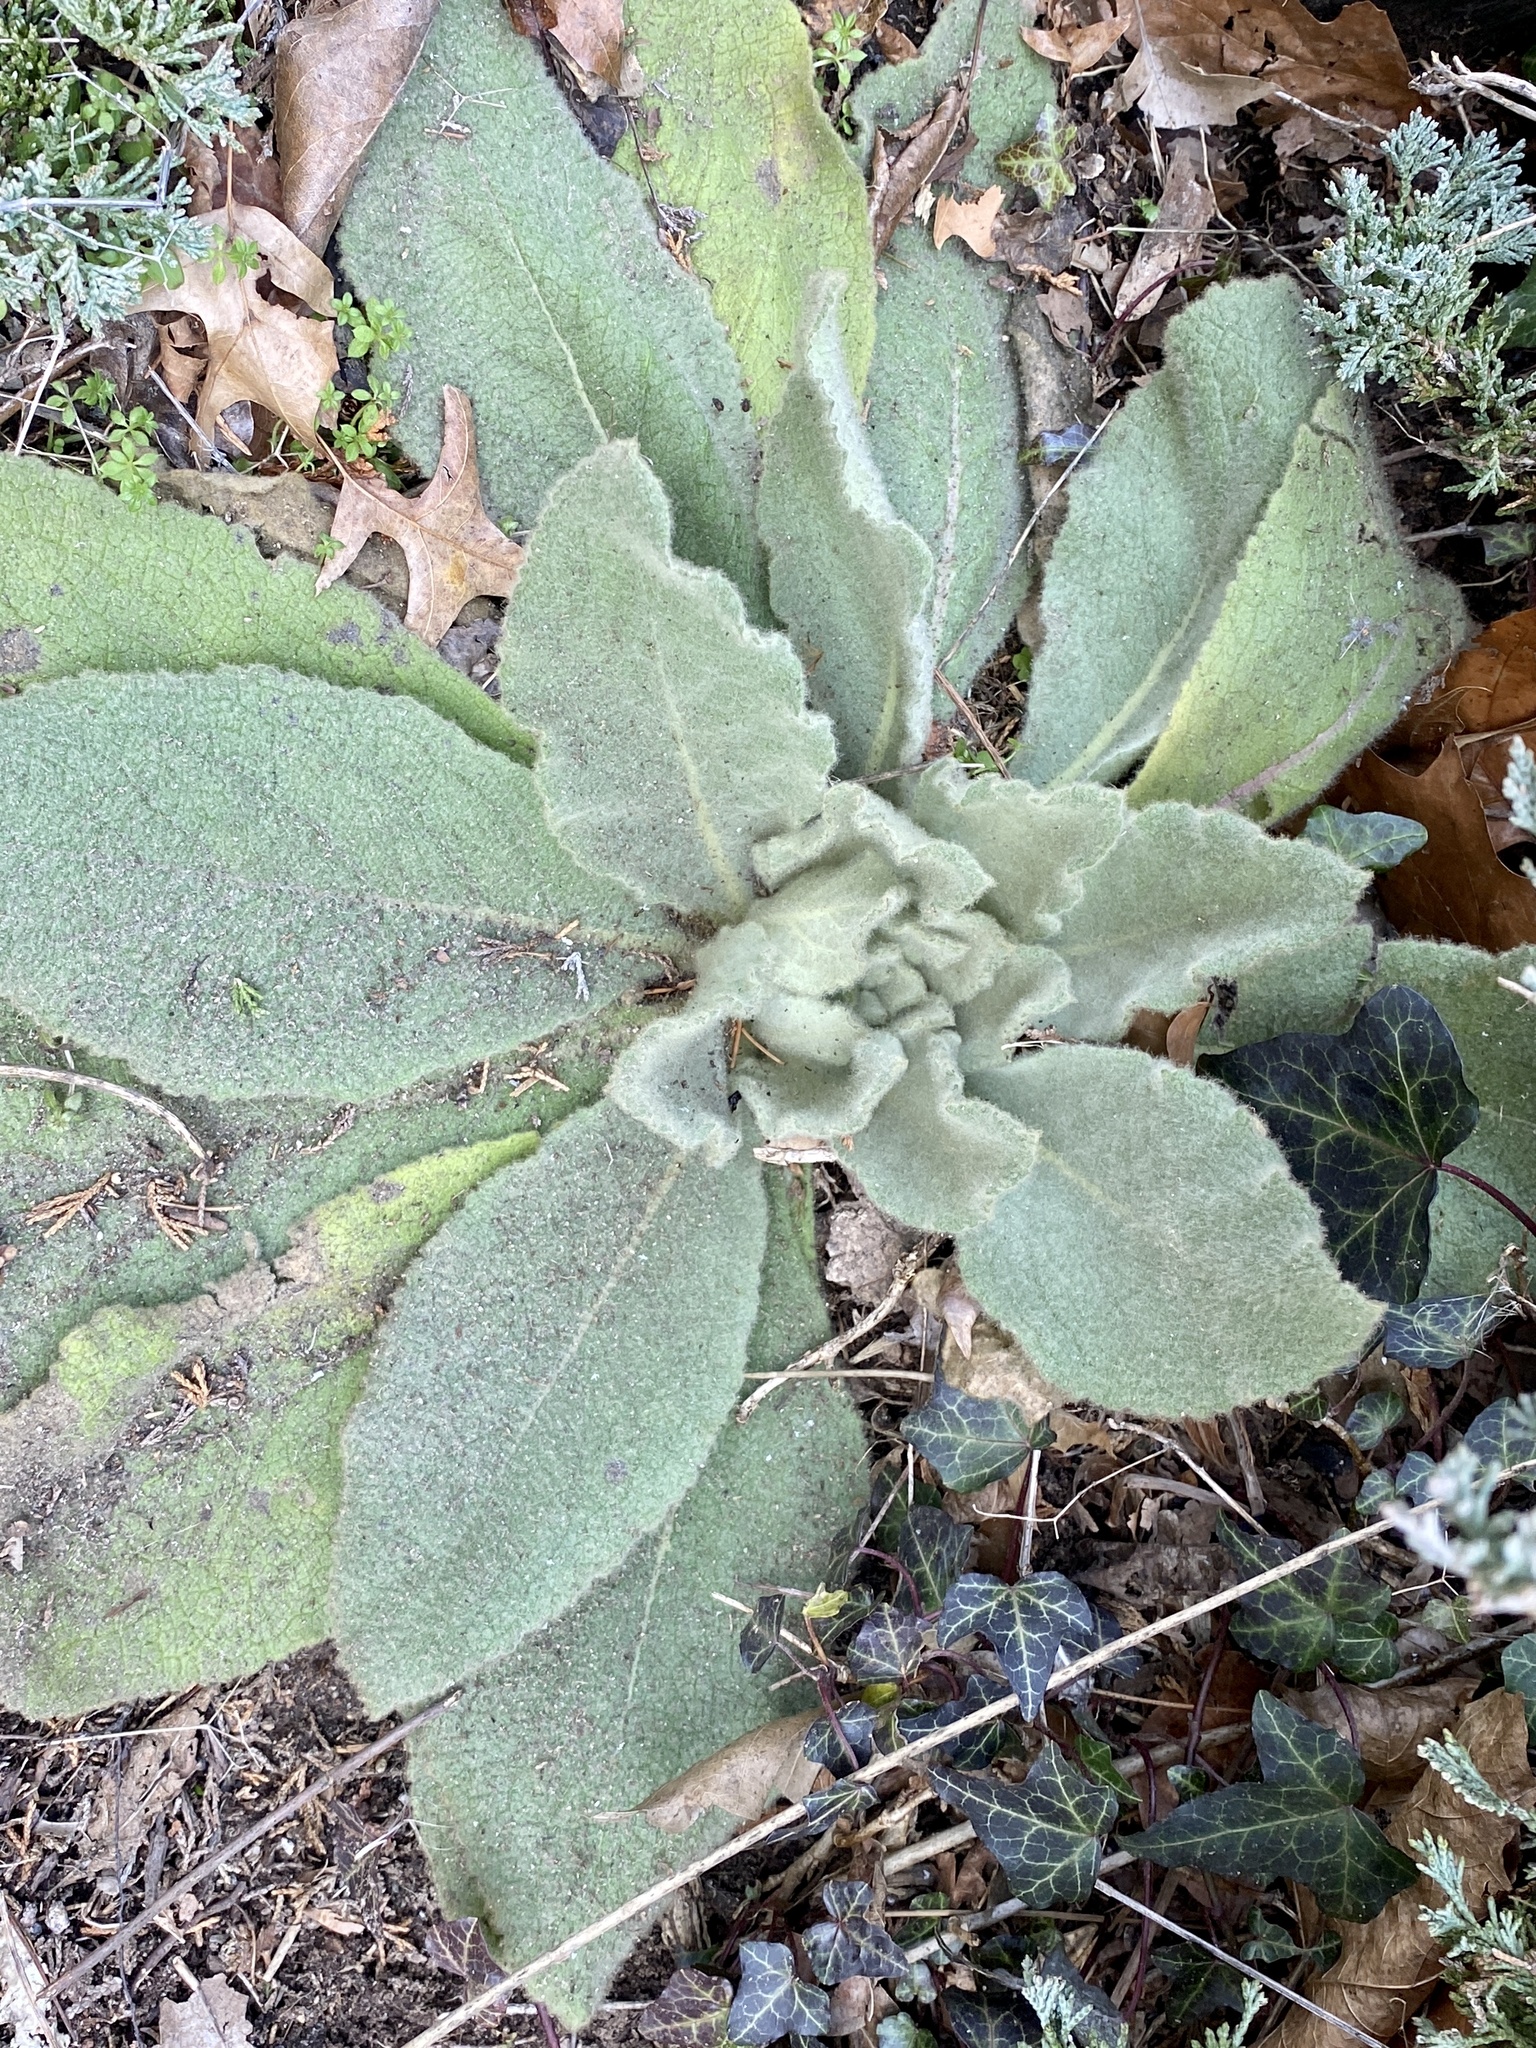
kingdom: Plantae
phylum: Tracheophyta
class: Magnoliopsida
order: Lamiales
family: Scrophulariaceae
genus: Verbascum
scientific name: Verbascum thapsus
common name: Common mullein
